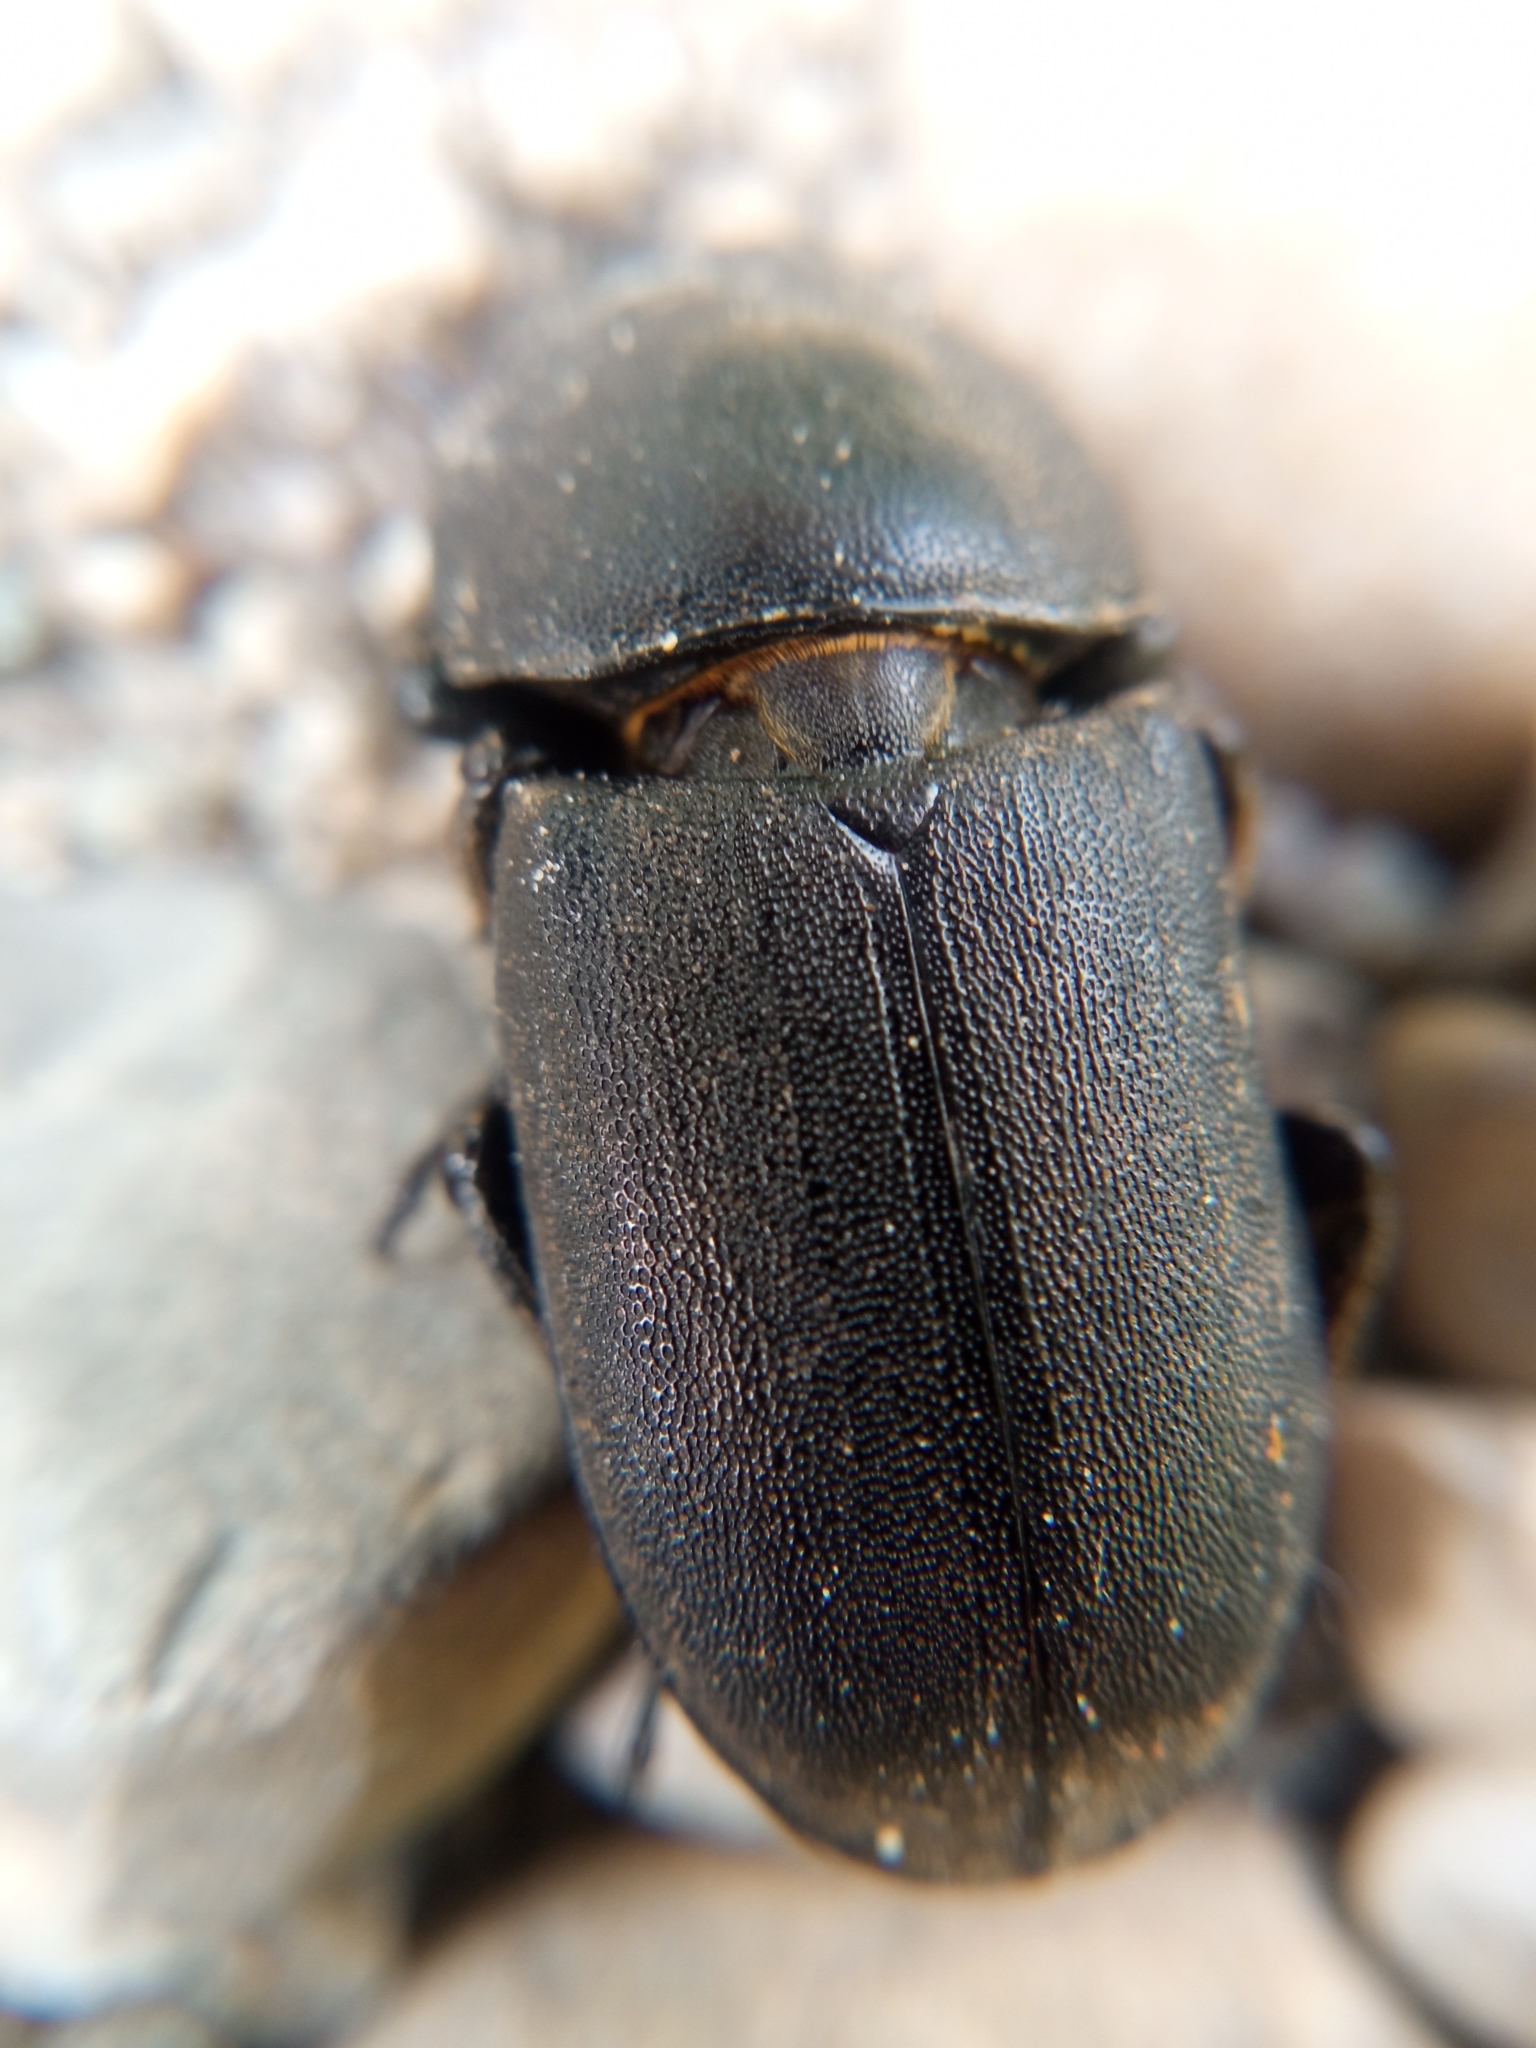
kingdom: Animalia
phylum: Arthropoda
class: Insecta
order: Coleoptera
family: Lucanidae
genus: Dorcus
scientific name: Dorcus parallelipipedus
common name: Lesser stag beetle
